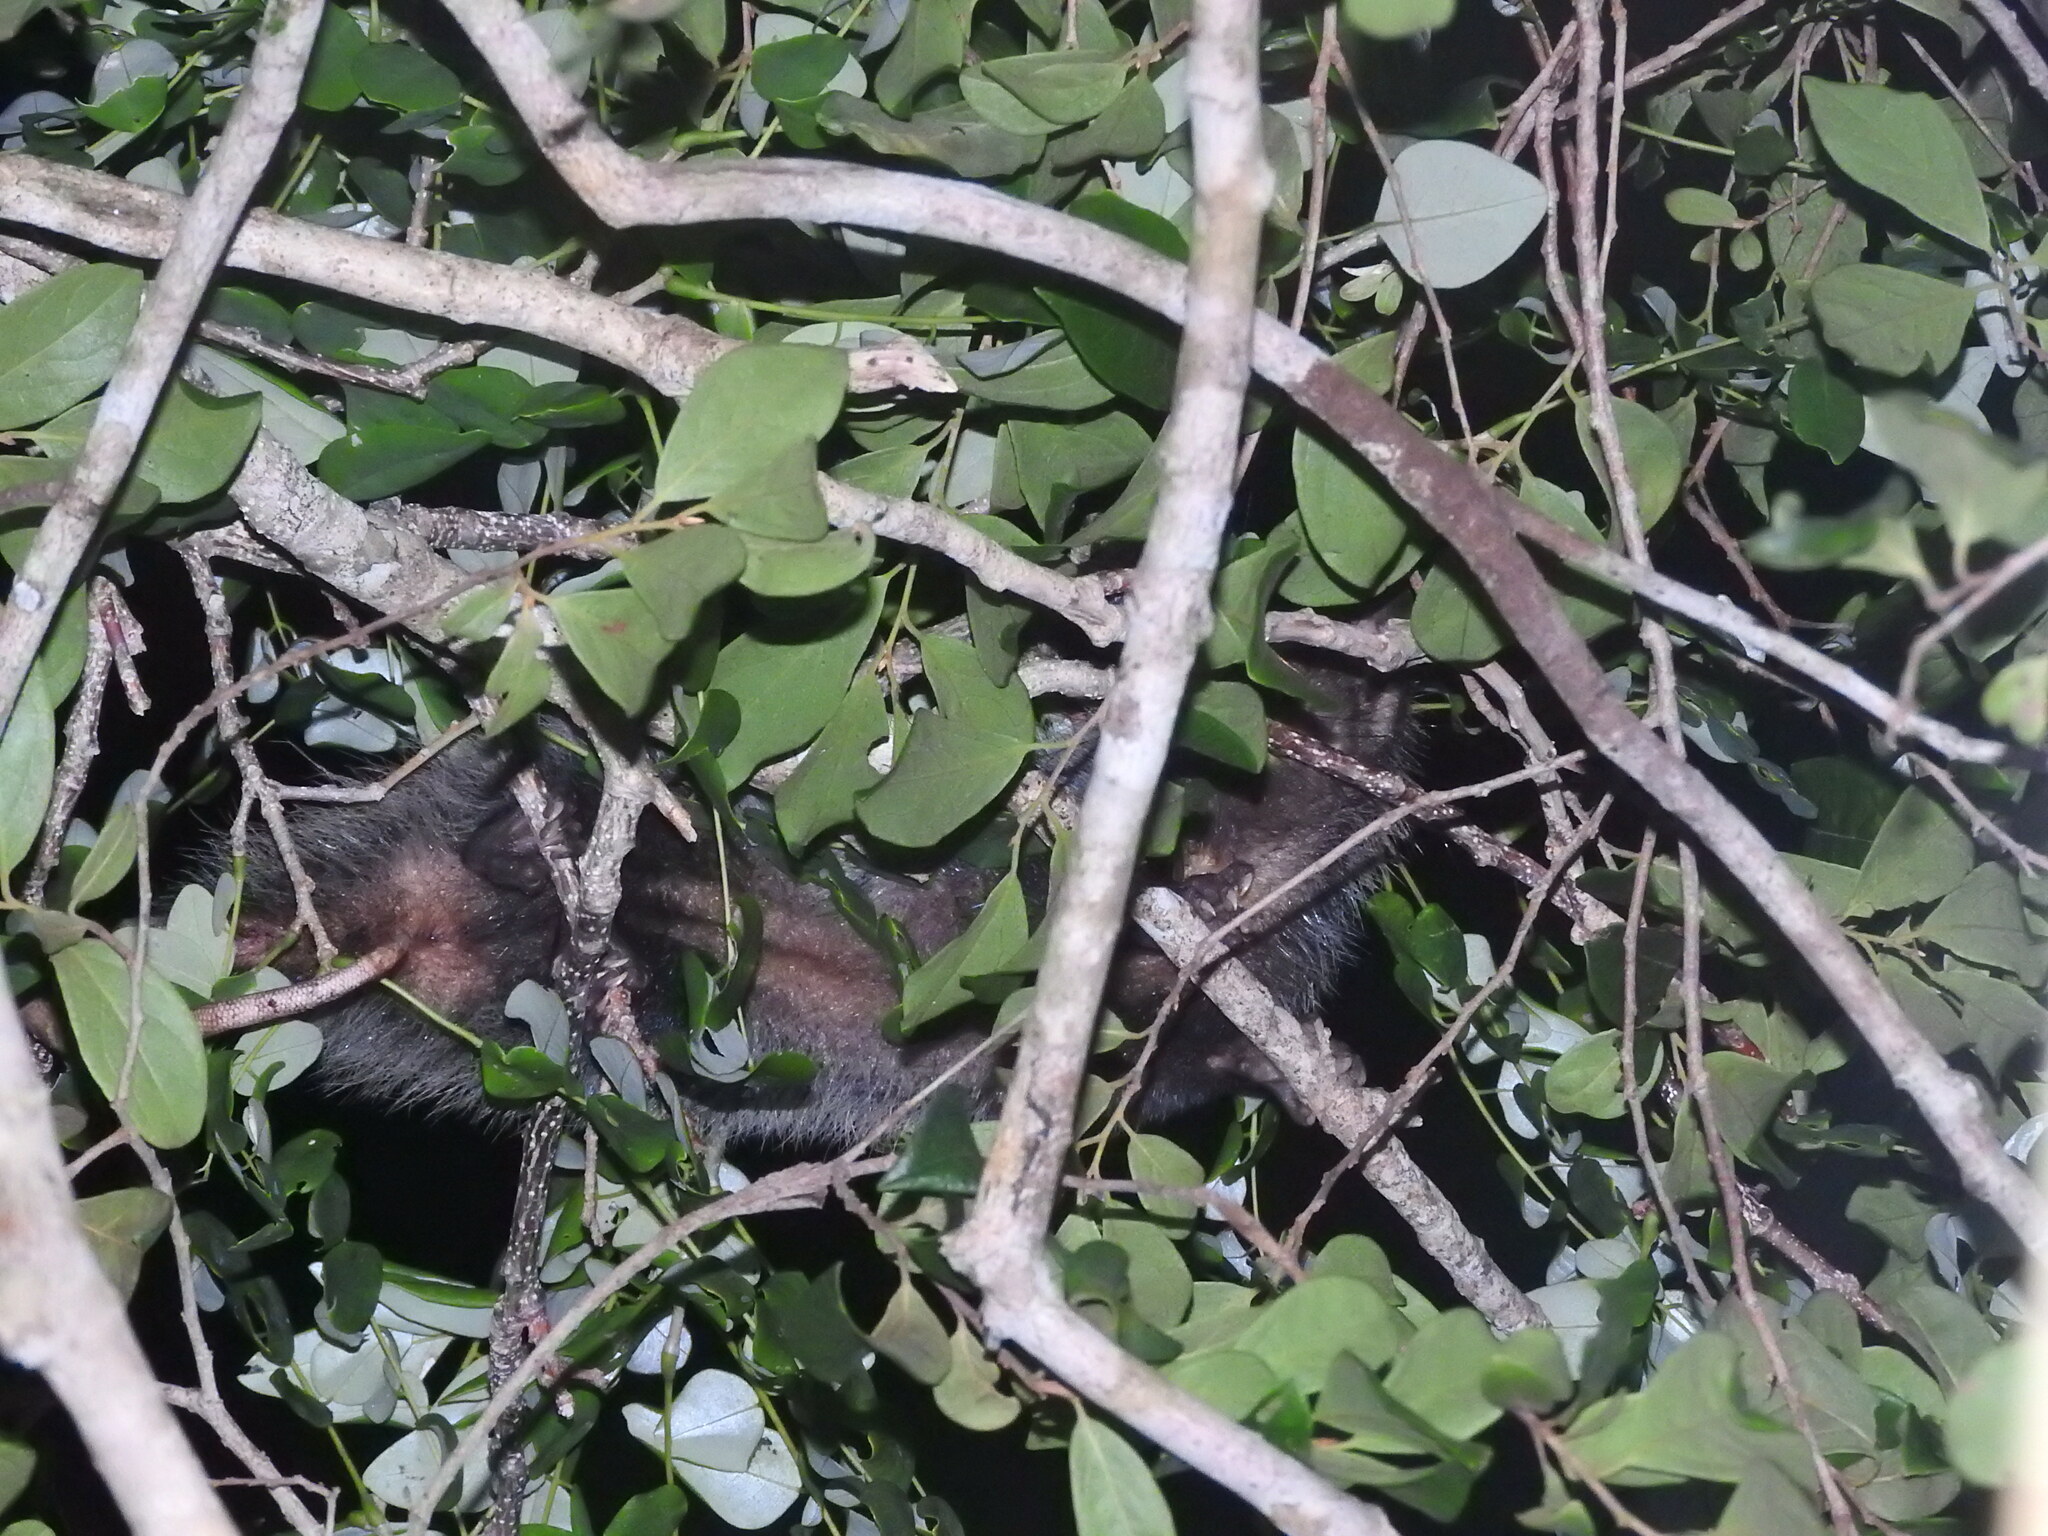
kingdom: Animalia
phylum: Chordata
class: Mammalia
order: Didelphimorphia
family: Didelphidae
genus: Didelphis
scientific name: Didelphis
